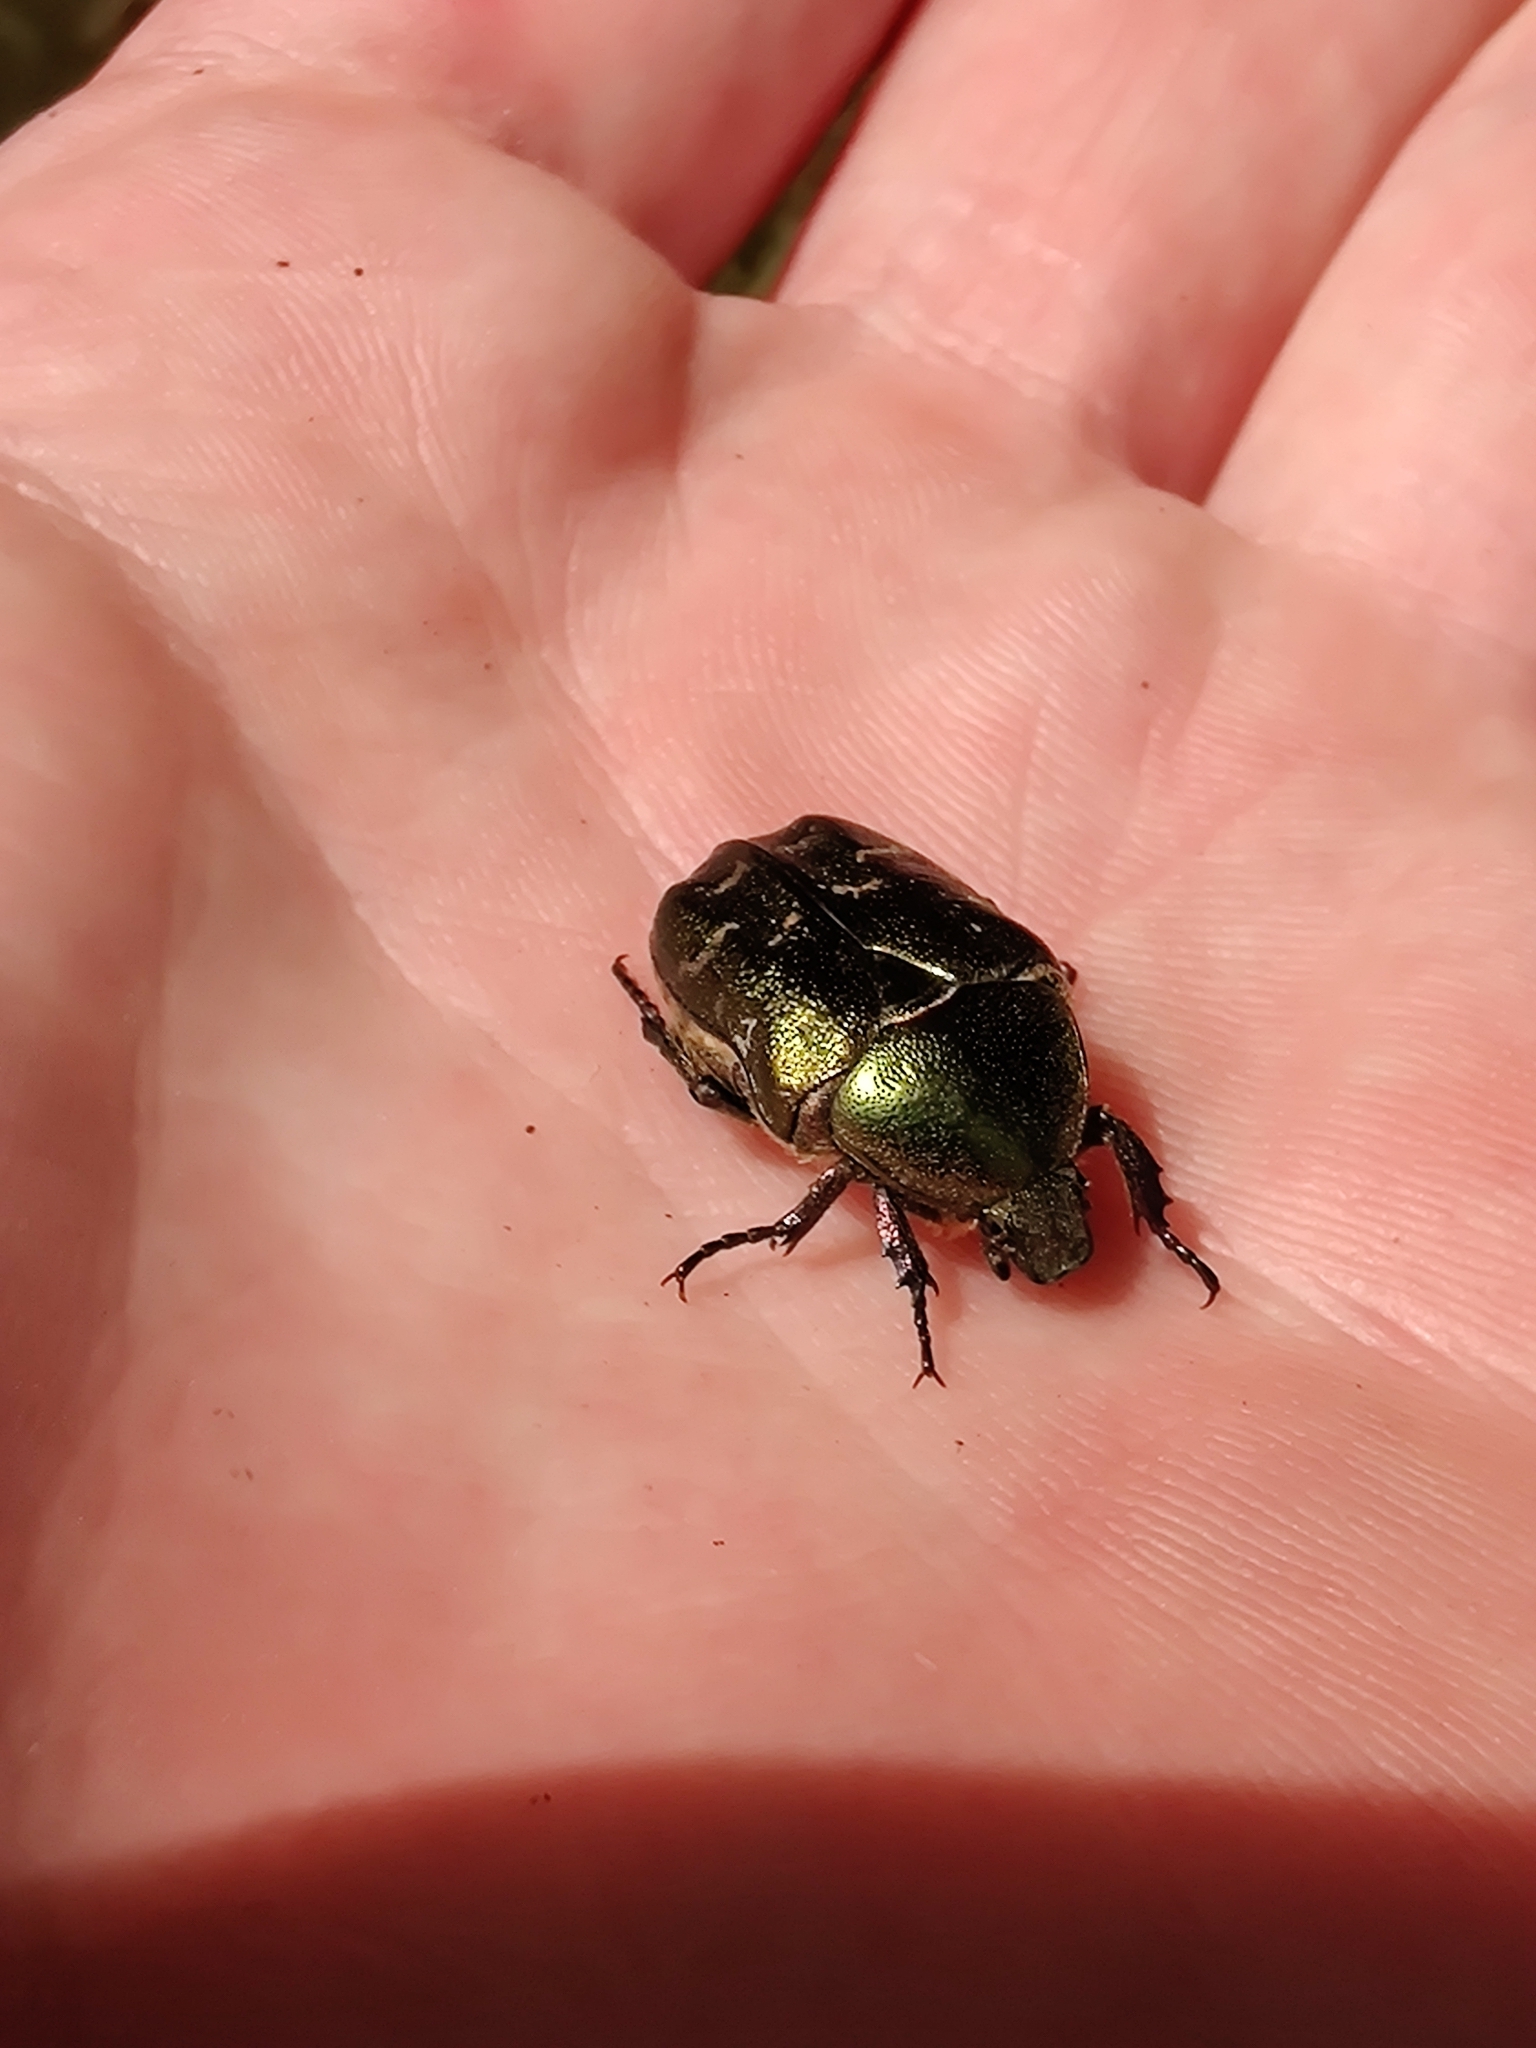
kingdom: Animalia
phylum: Arthropoda
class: Insecta
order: Coleoptera
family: Scarabaeidae
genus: Protaetia
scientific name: Protaetia cuprea
